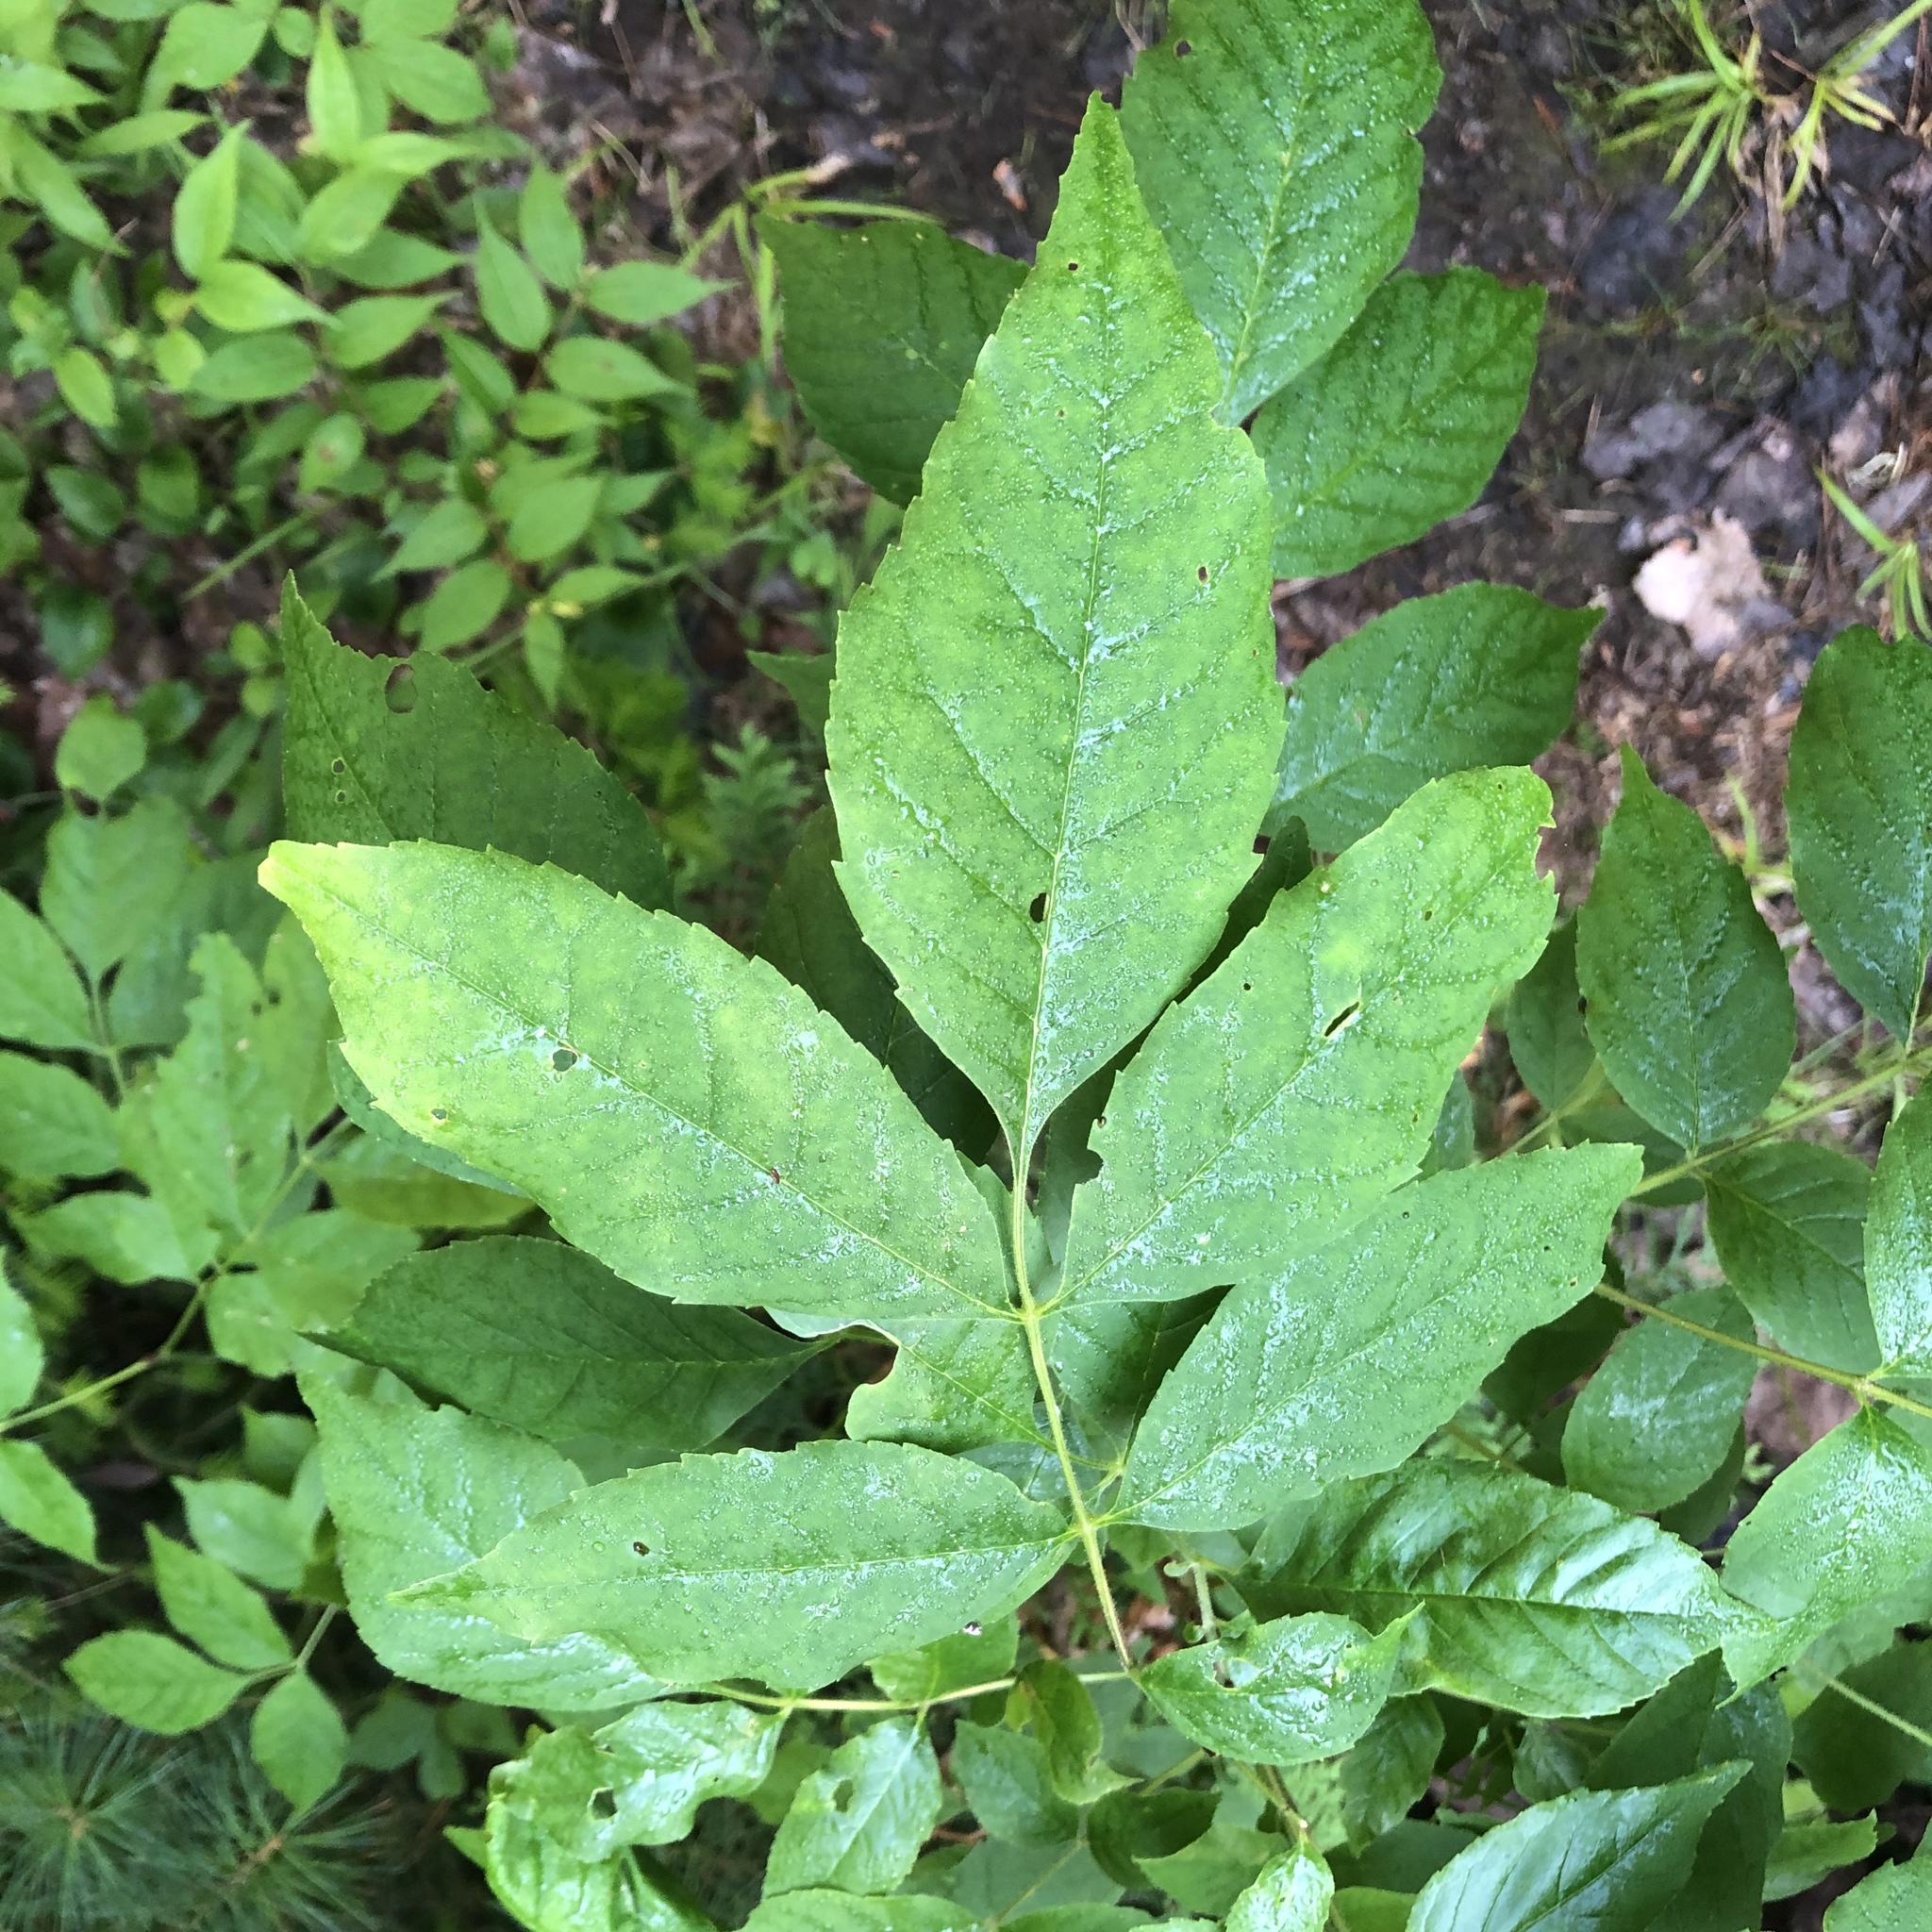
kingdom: Plantae
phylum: Tracheophyta
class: Magnoliopsida
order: Lamiales
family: Oleaceae
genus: Fraxinus
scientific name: Fraxinus pennsylvanica
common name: Green ash
